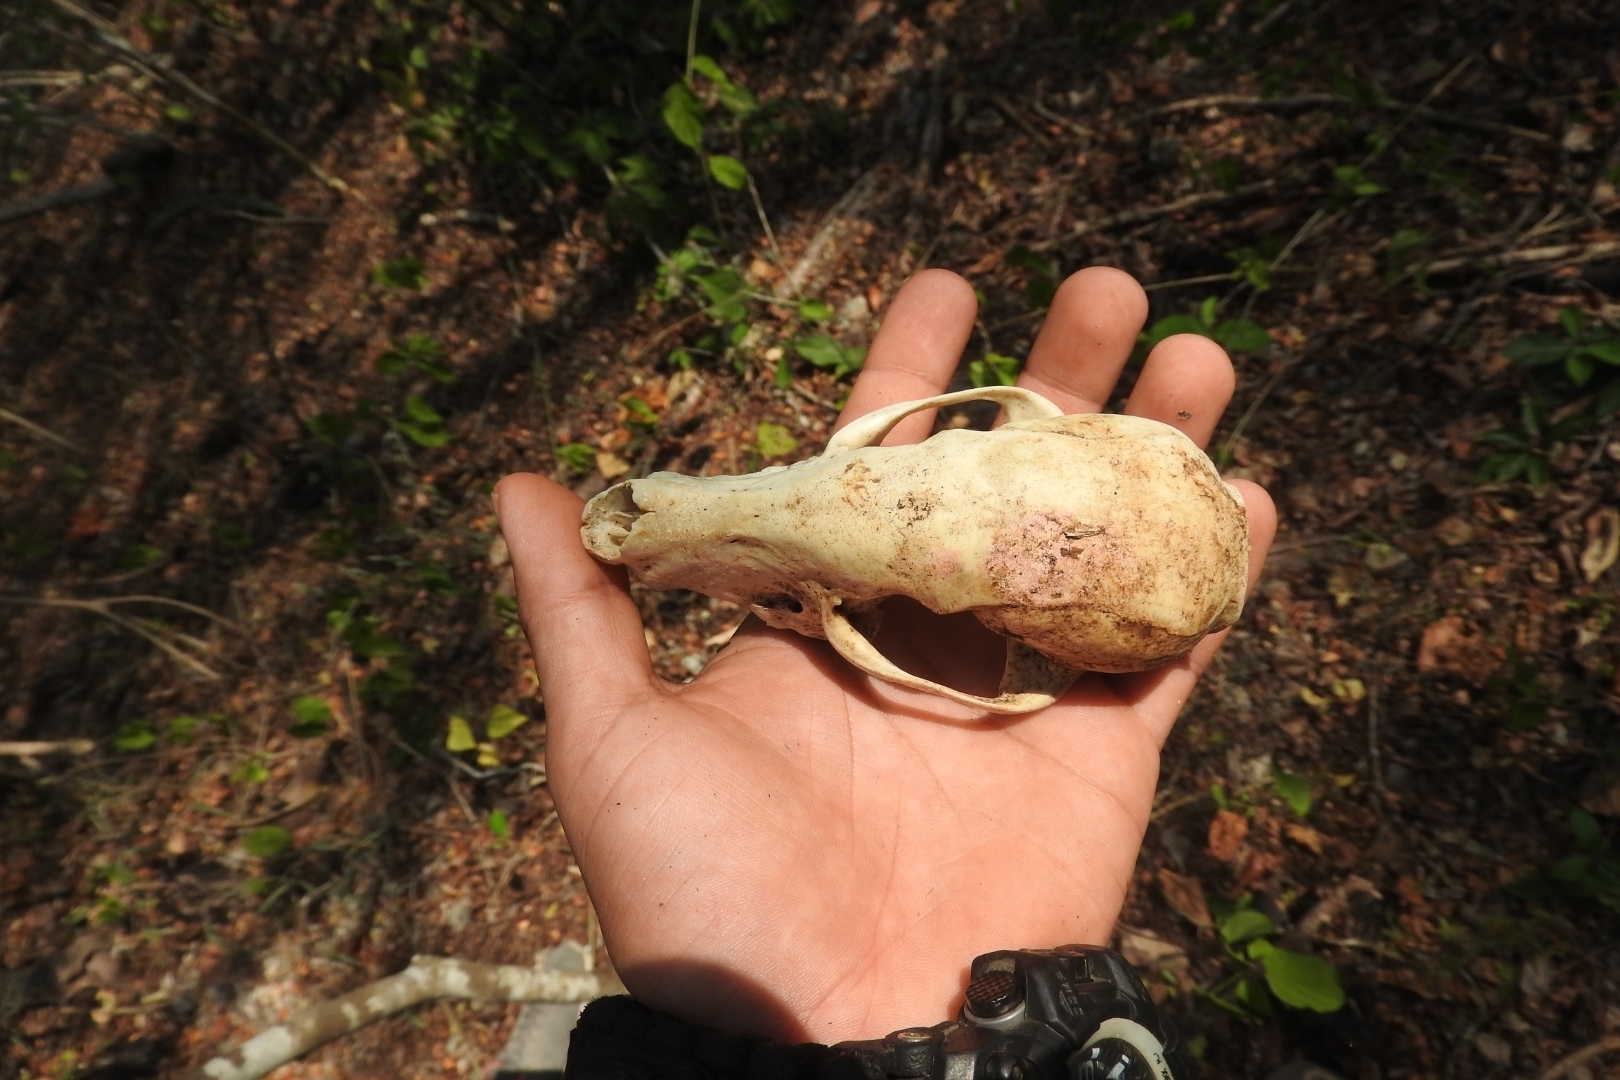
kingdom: Animalia
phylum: Chordata
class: Mammalia
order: Carnivora
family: Procyonidae
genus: Nasua
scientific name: Nasua narica
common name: White-nosed coati
